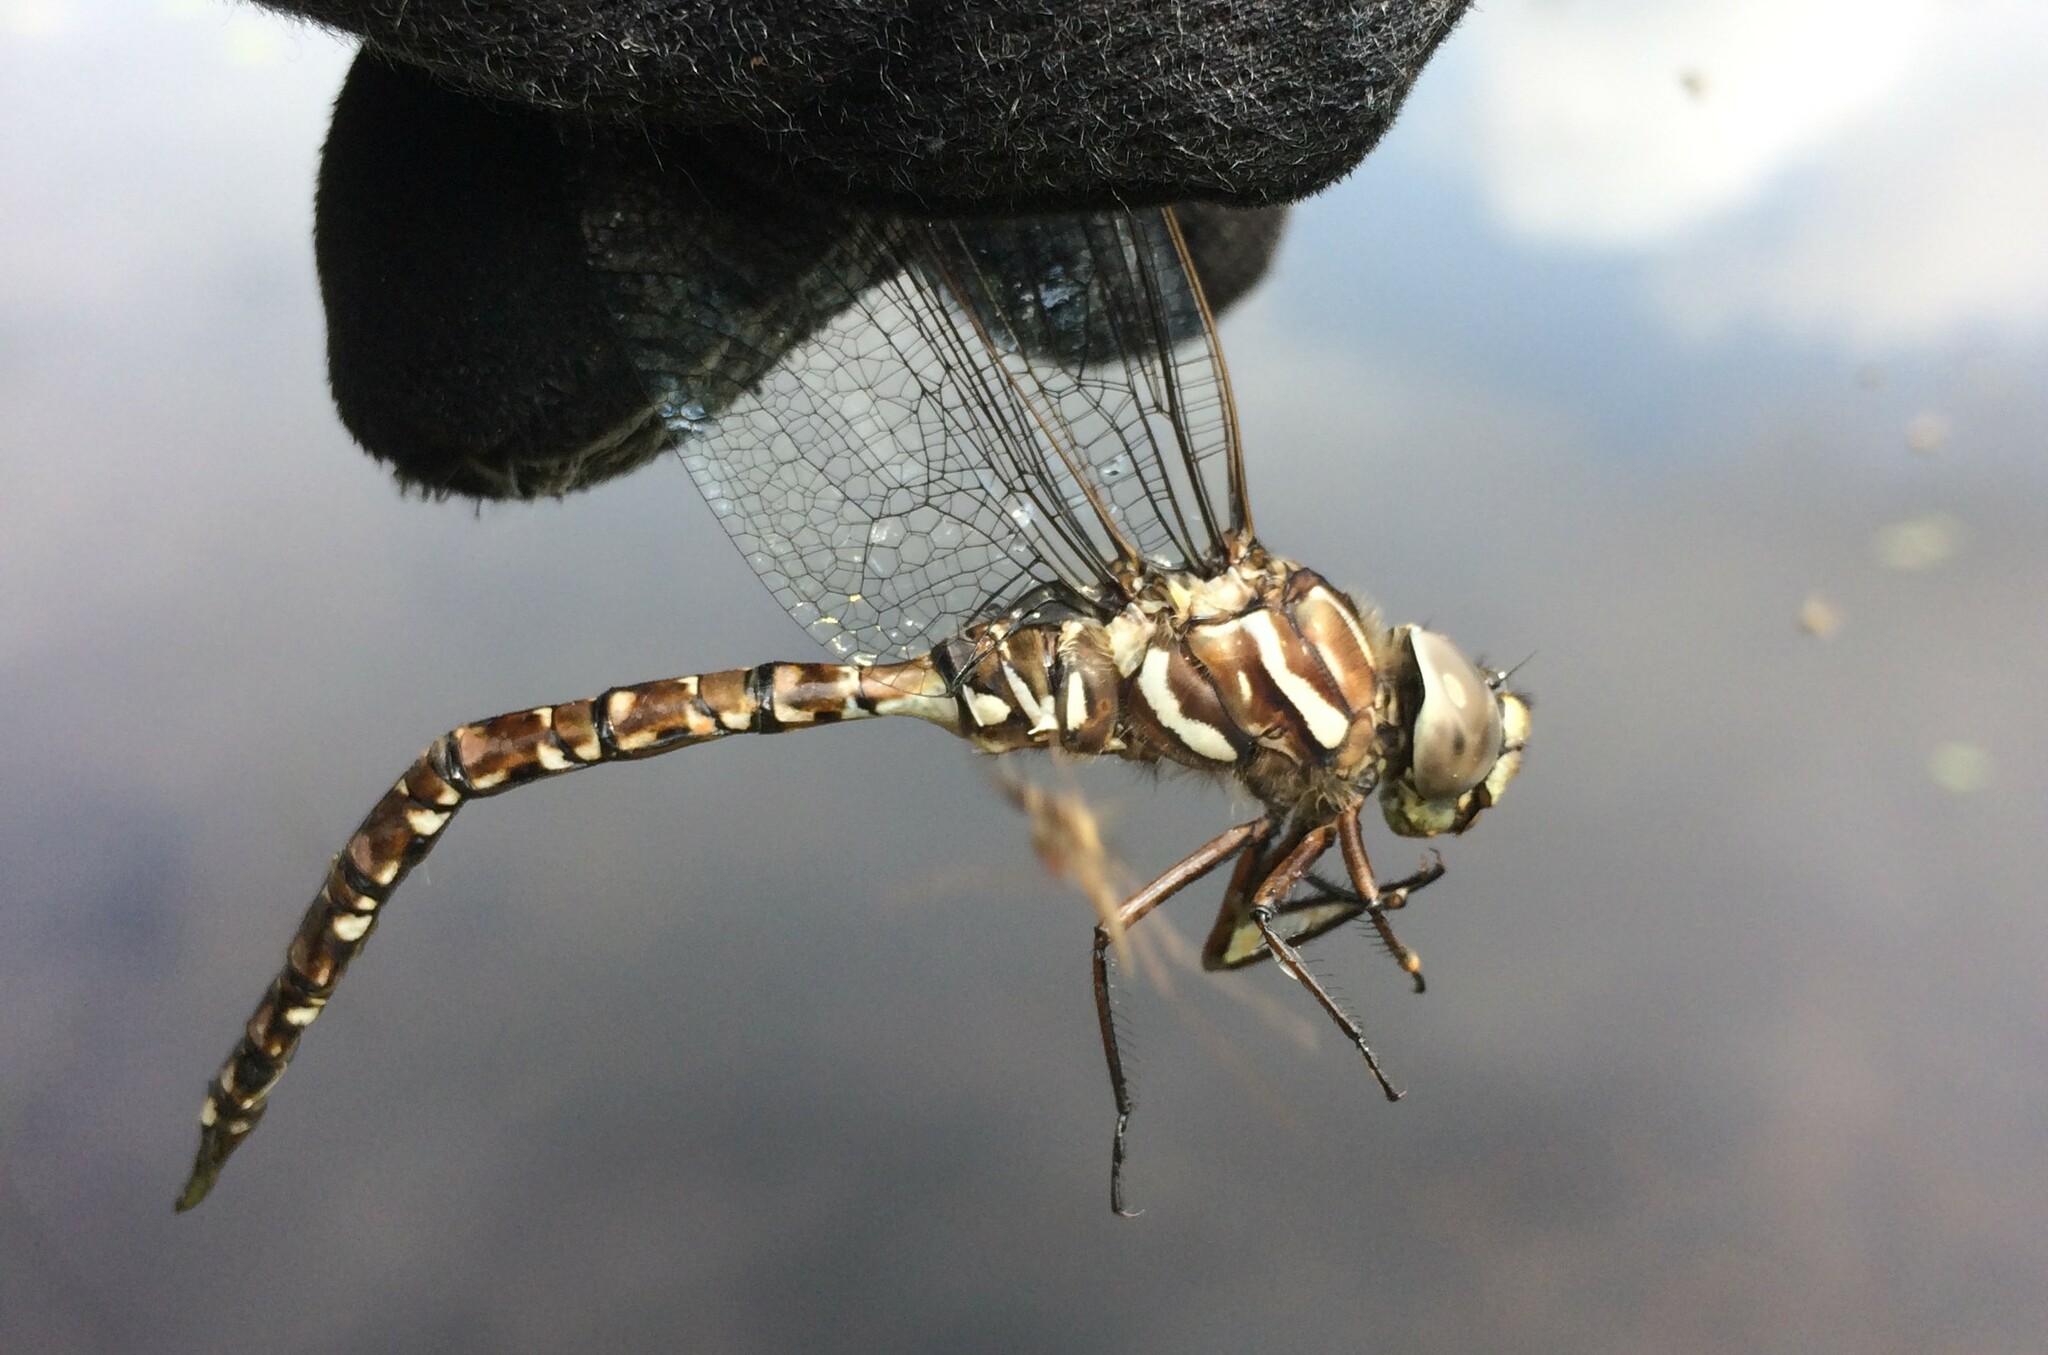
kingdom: Animalia
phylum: Arthropoda
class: Insecta
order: Odonata
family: Aeshnidae
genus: Aeshna
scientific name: Aeshna subarctica
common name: Subarctic darner
